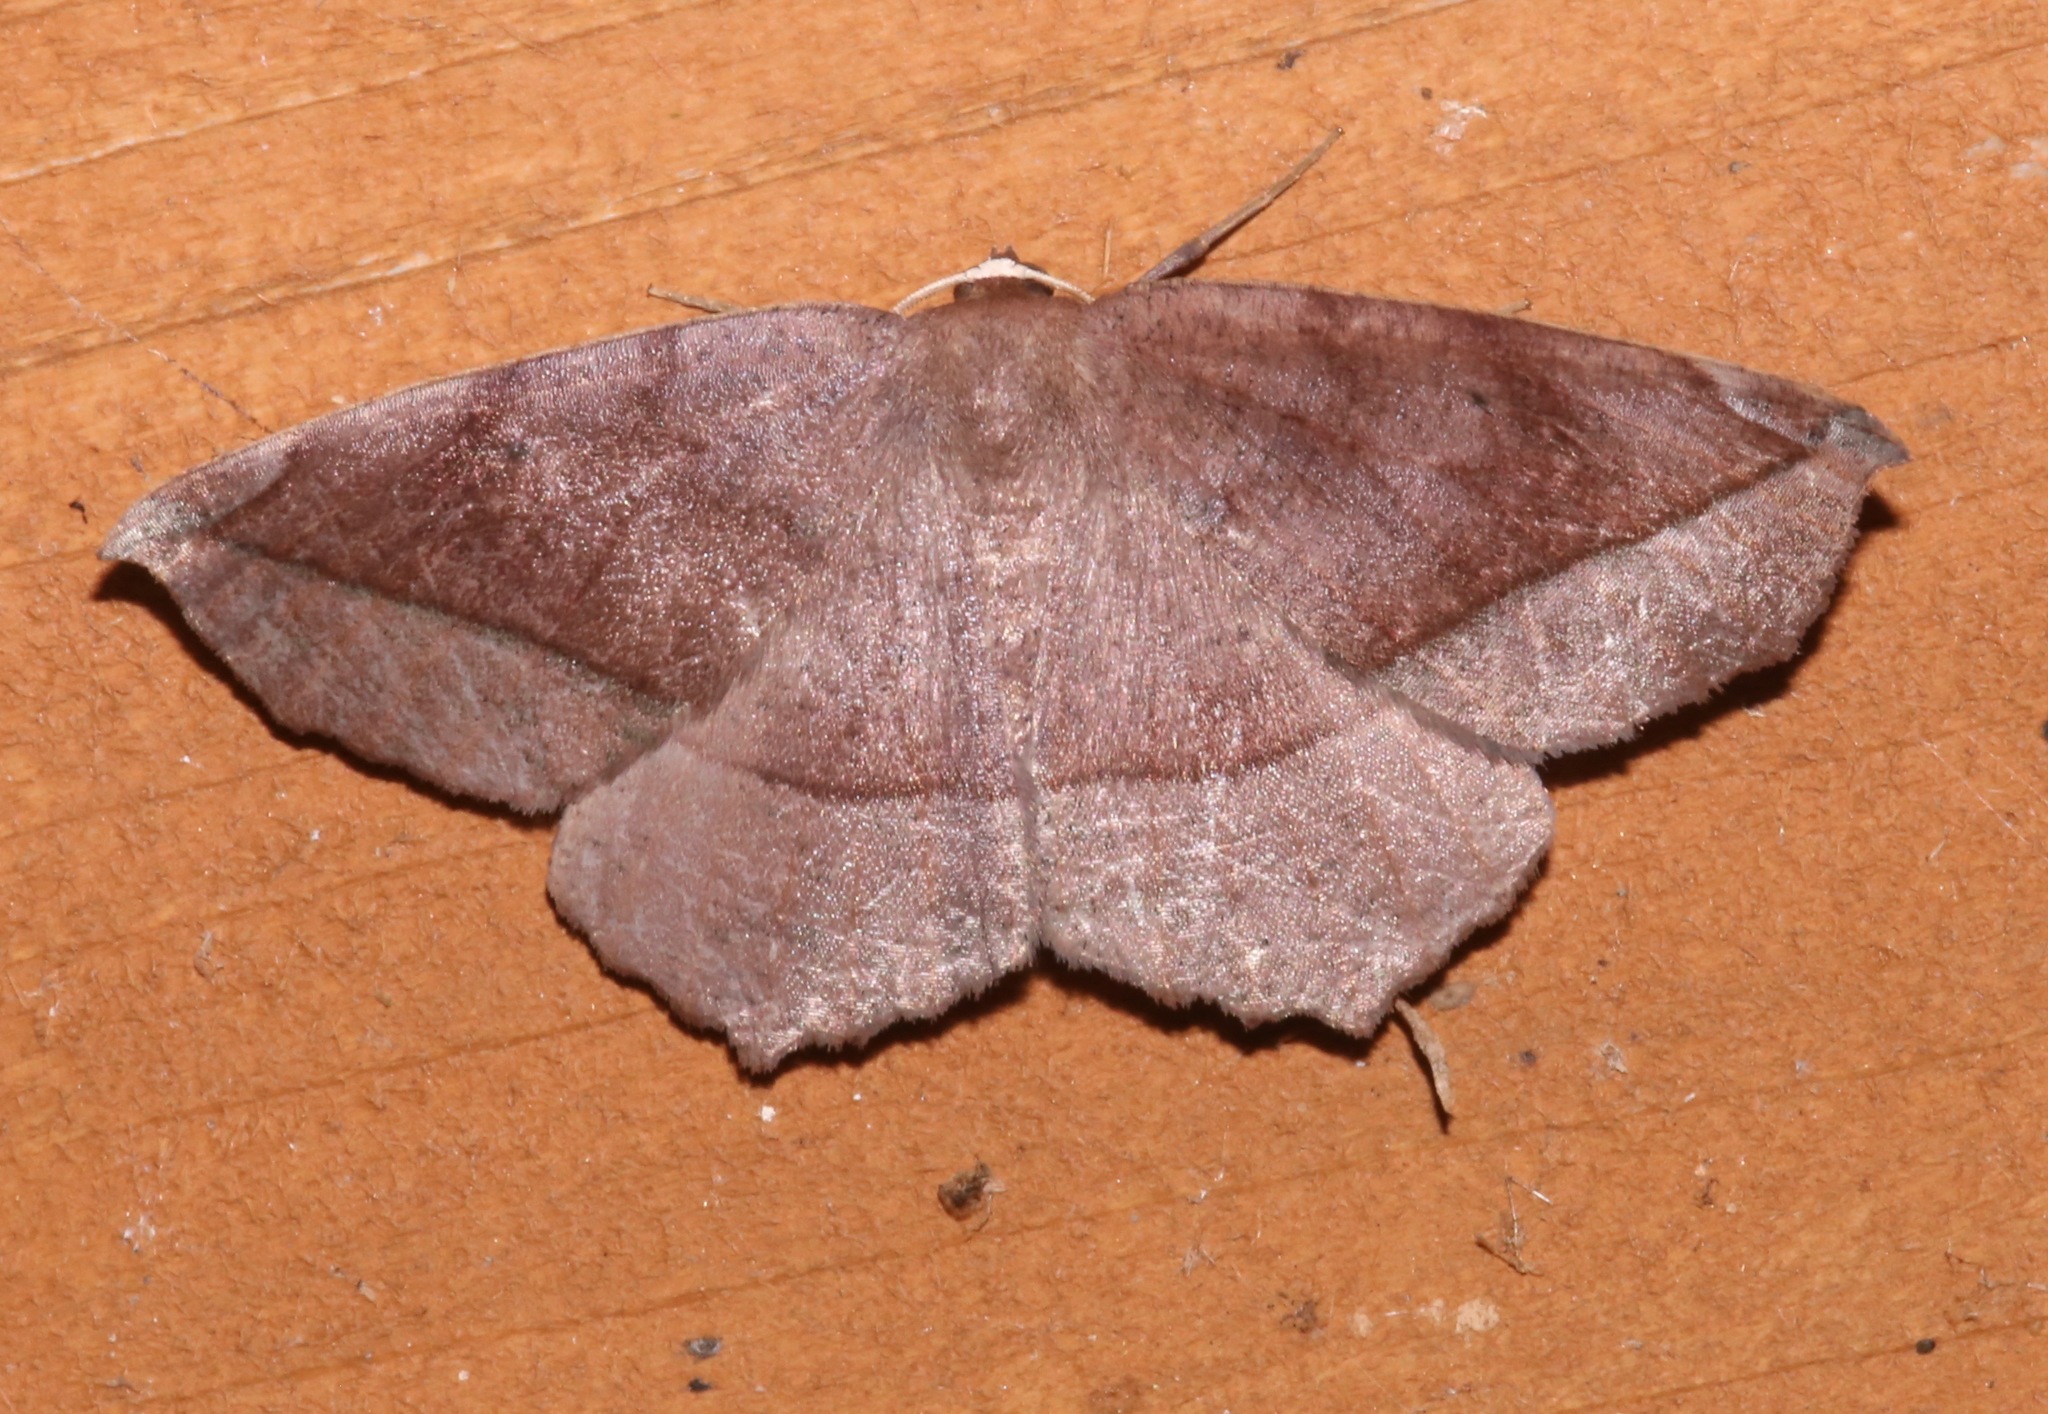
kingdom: Animalia
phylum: Arthropoda
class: Insecta
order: Lepidoptera
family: Geometridae
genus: Eutrapela
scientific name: Eutrapela clemataria
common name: Curved-toothed geometer
